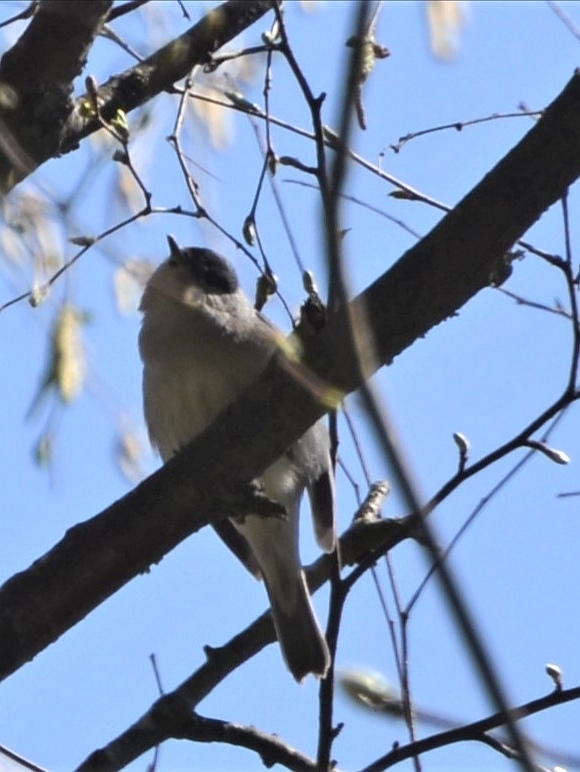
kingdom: Animalia
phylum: Chordata
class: Aves
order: Passeriformes
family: Sylviidae
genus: Sylvia
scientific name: Sylvia atricapilla
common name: Eurasian blackcap
